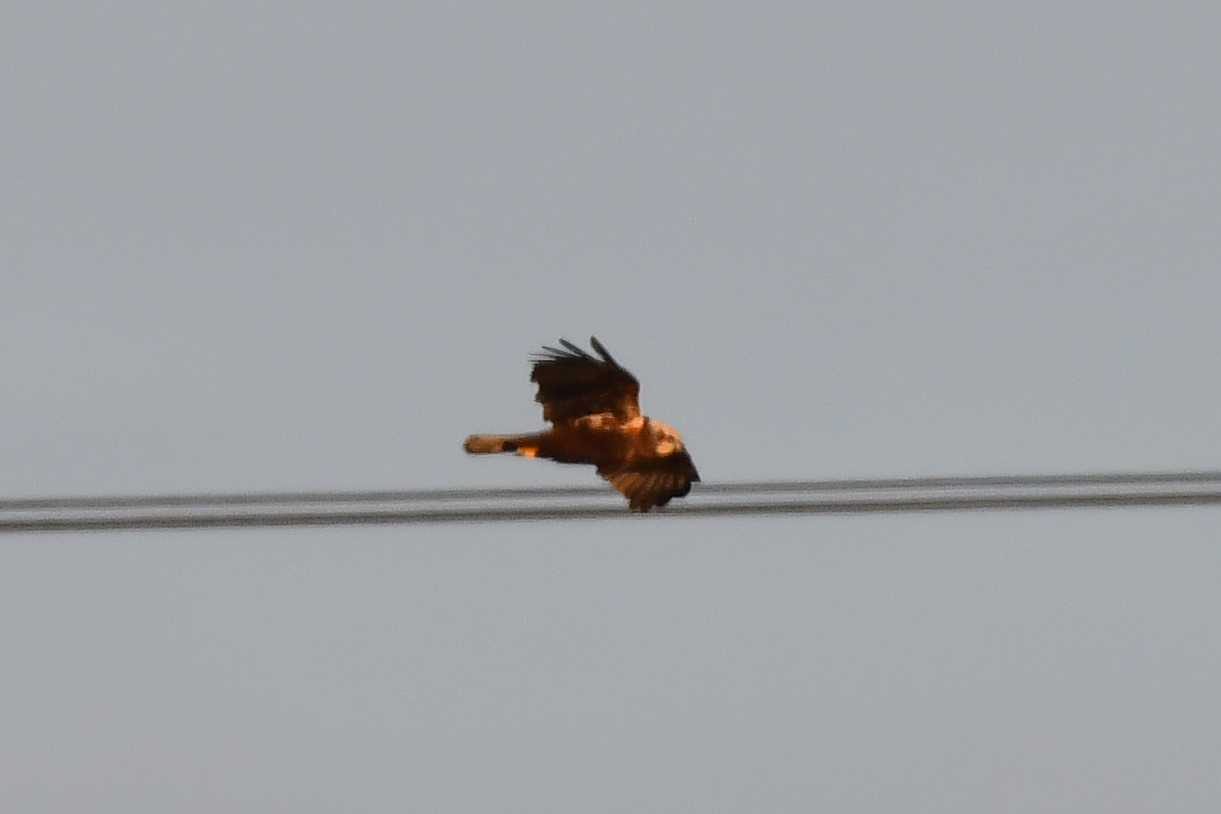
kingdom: Animalia
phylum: Chordata
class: Aves
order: Accipitriformes
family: Accipitridae
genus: Circus
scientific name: Circus aeruginosus
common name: Western marsh harrier
